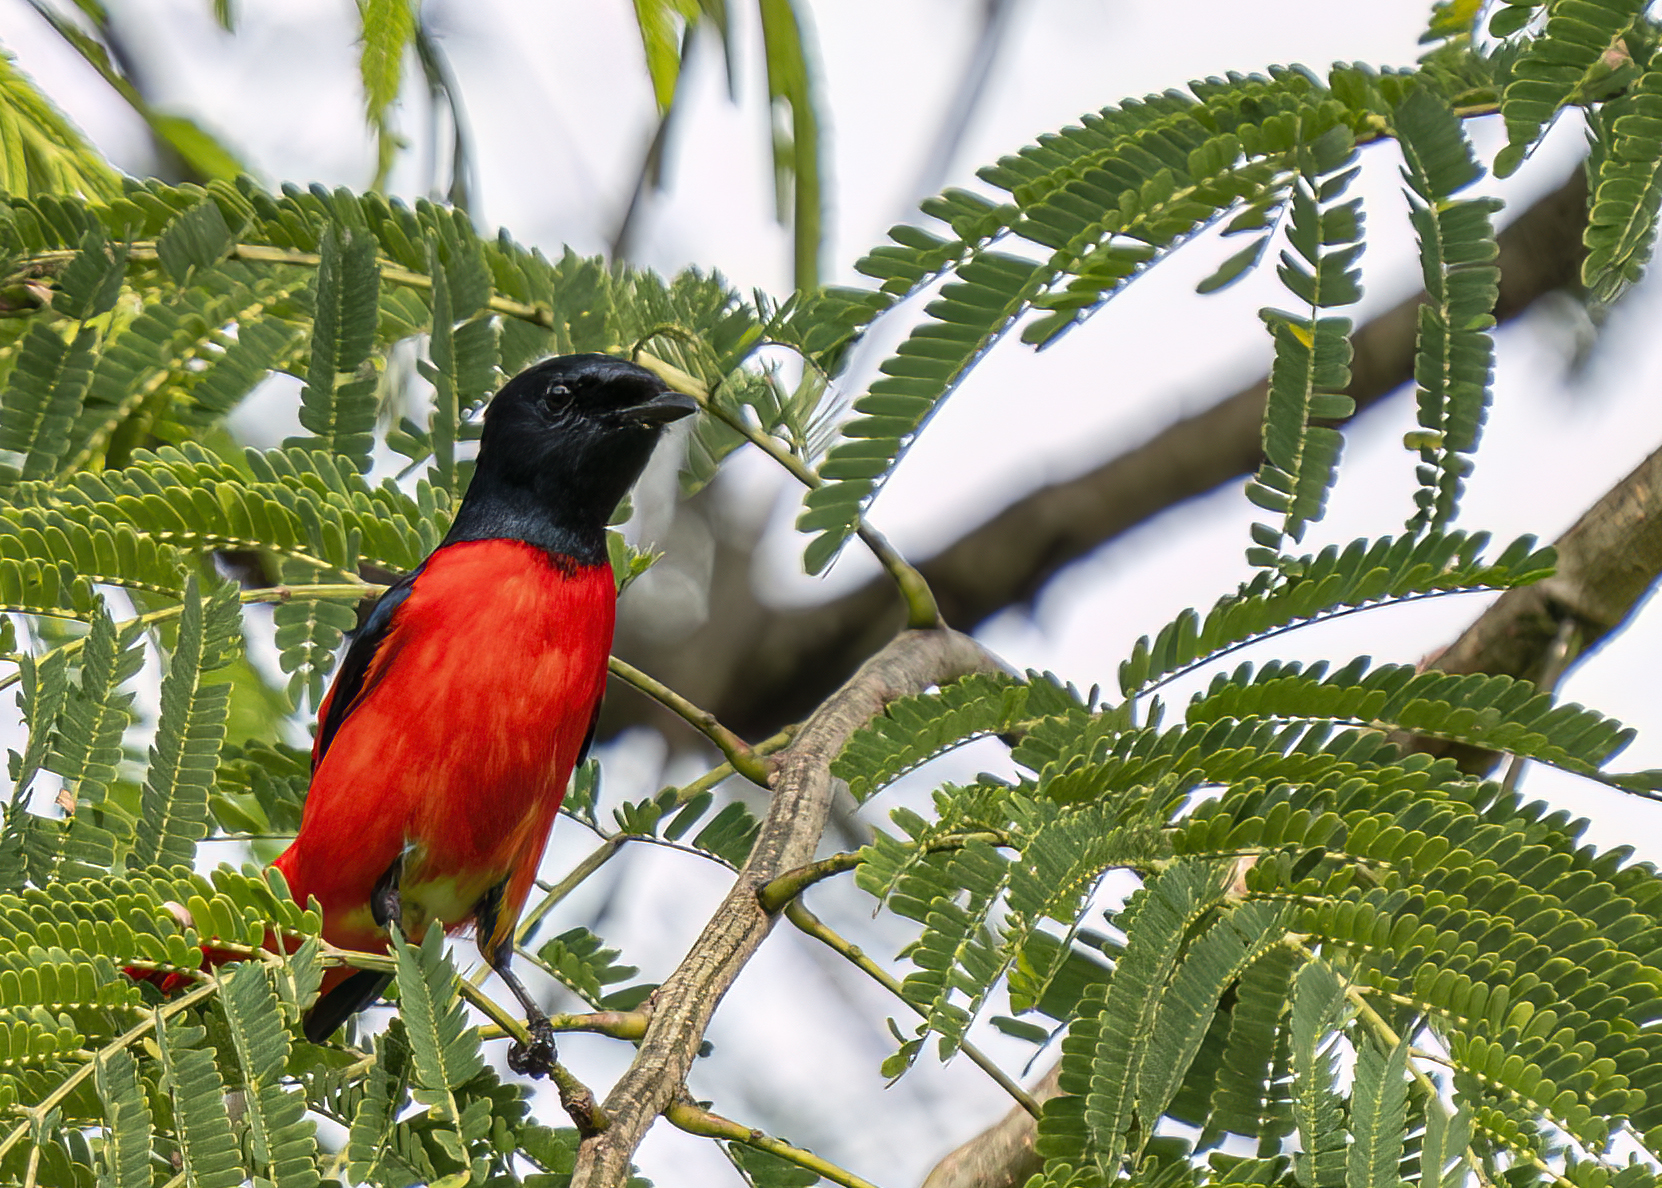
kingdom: Animalia
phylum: Chordata
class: Aves
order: Passeriformes
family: Campephagidae
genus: Pericrocotus
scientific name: Pericrocotus speciosus
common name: Scarlet minivet
